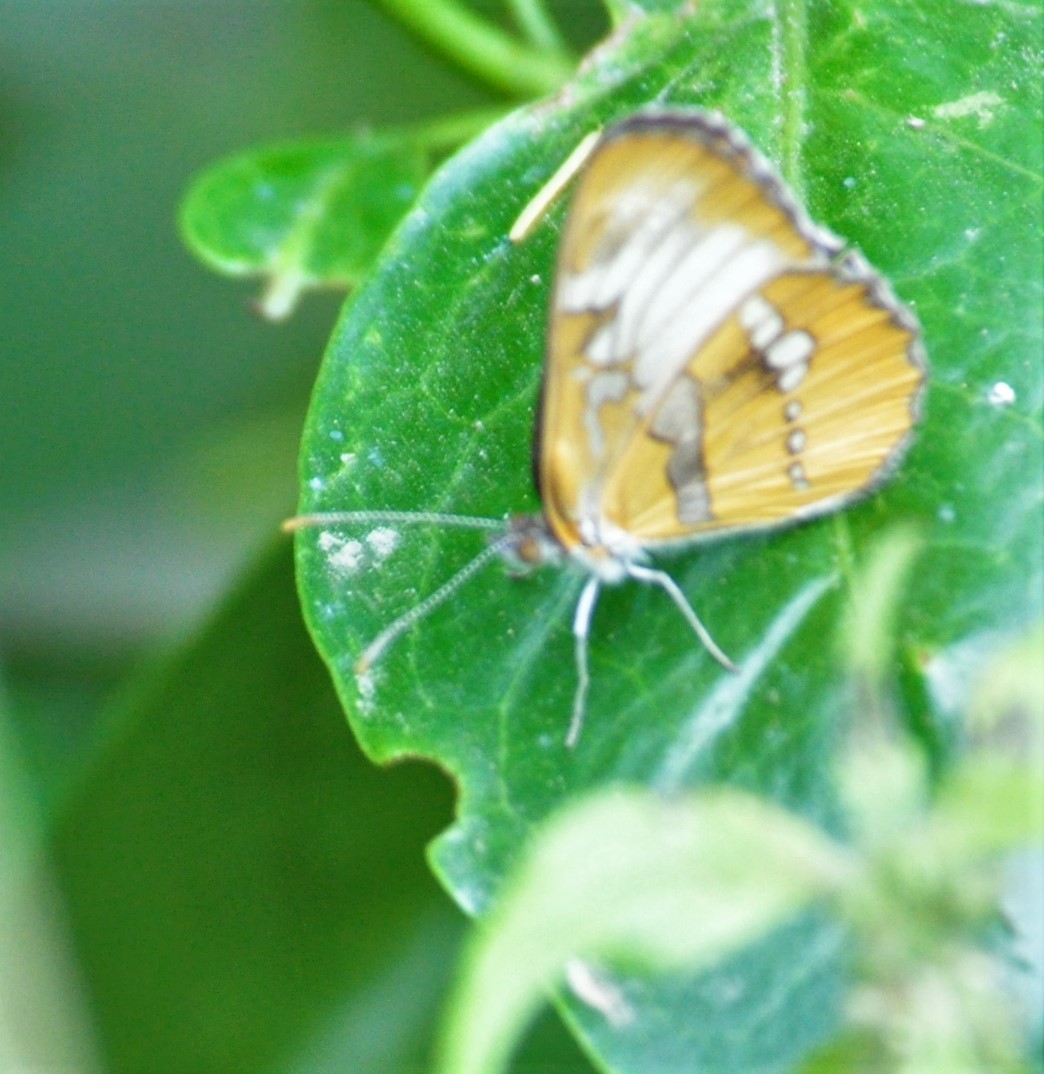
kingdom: Animalia
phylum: Arthropoda
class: Insecta
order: Lepidoptera
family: Nymphalidae
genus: Mestra
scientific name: Mestra amymone
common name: Common mestra
